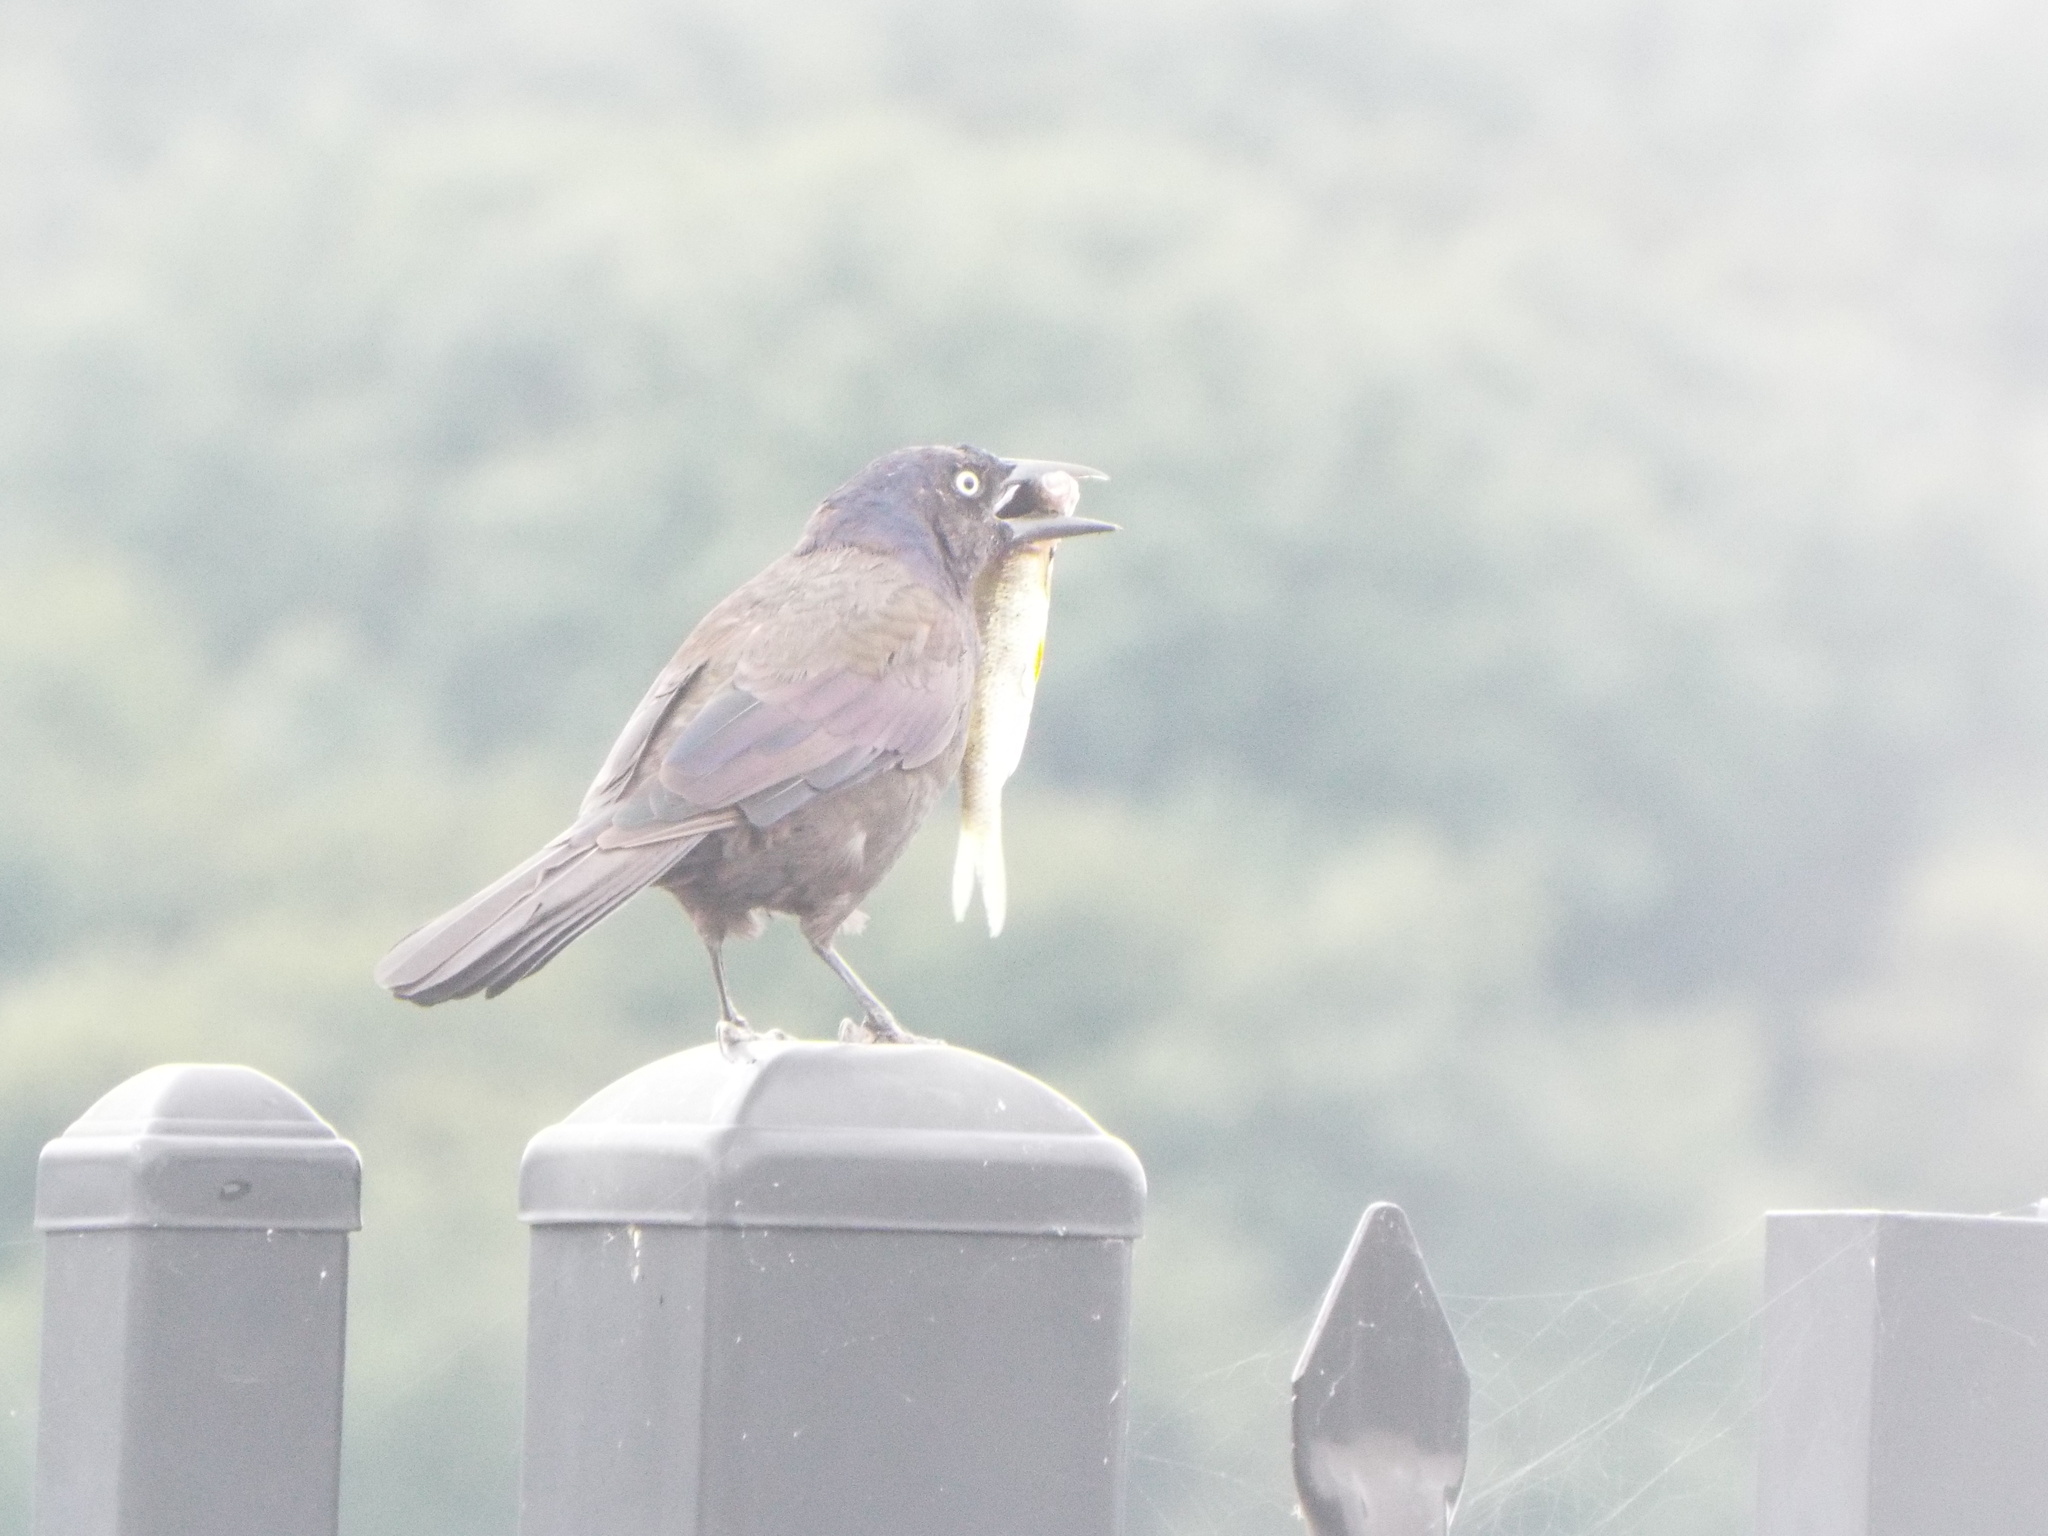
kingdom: Animalia
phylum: Chordata
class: Aves
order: Passeriformes
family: Icteridae
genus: Quiscalus
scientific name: Quiscalus quiscula
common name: Common grackle
